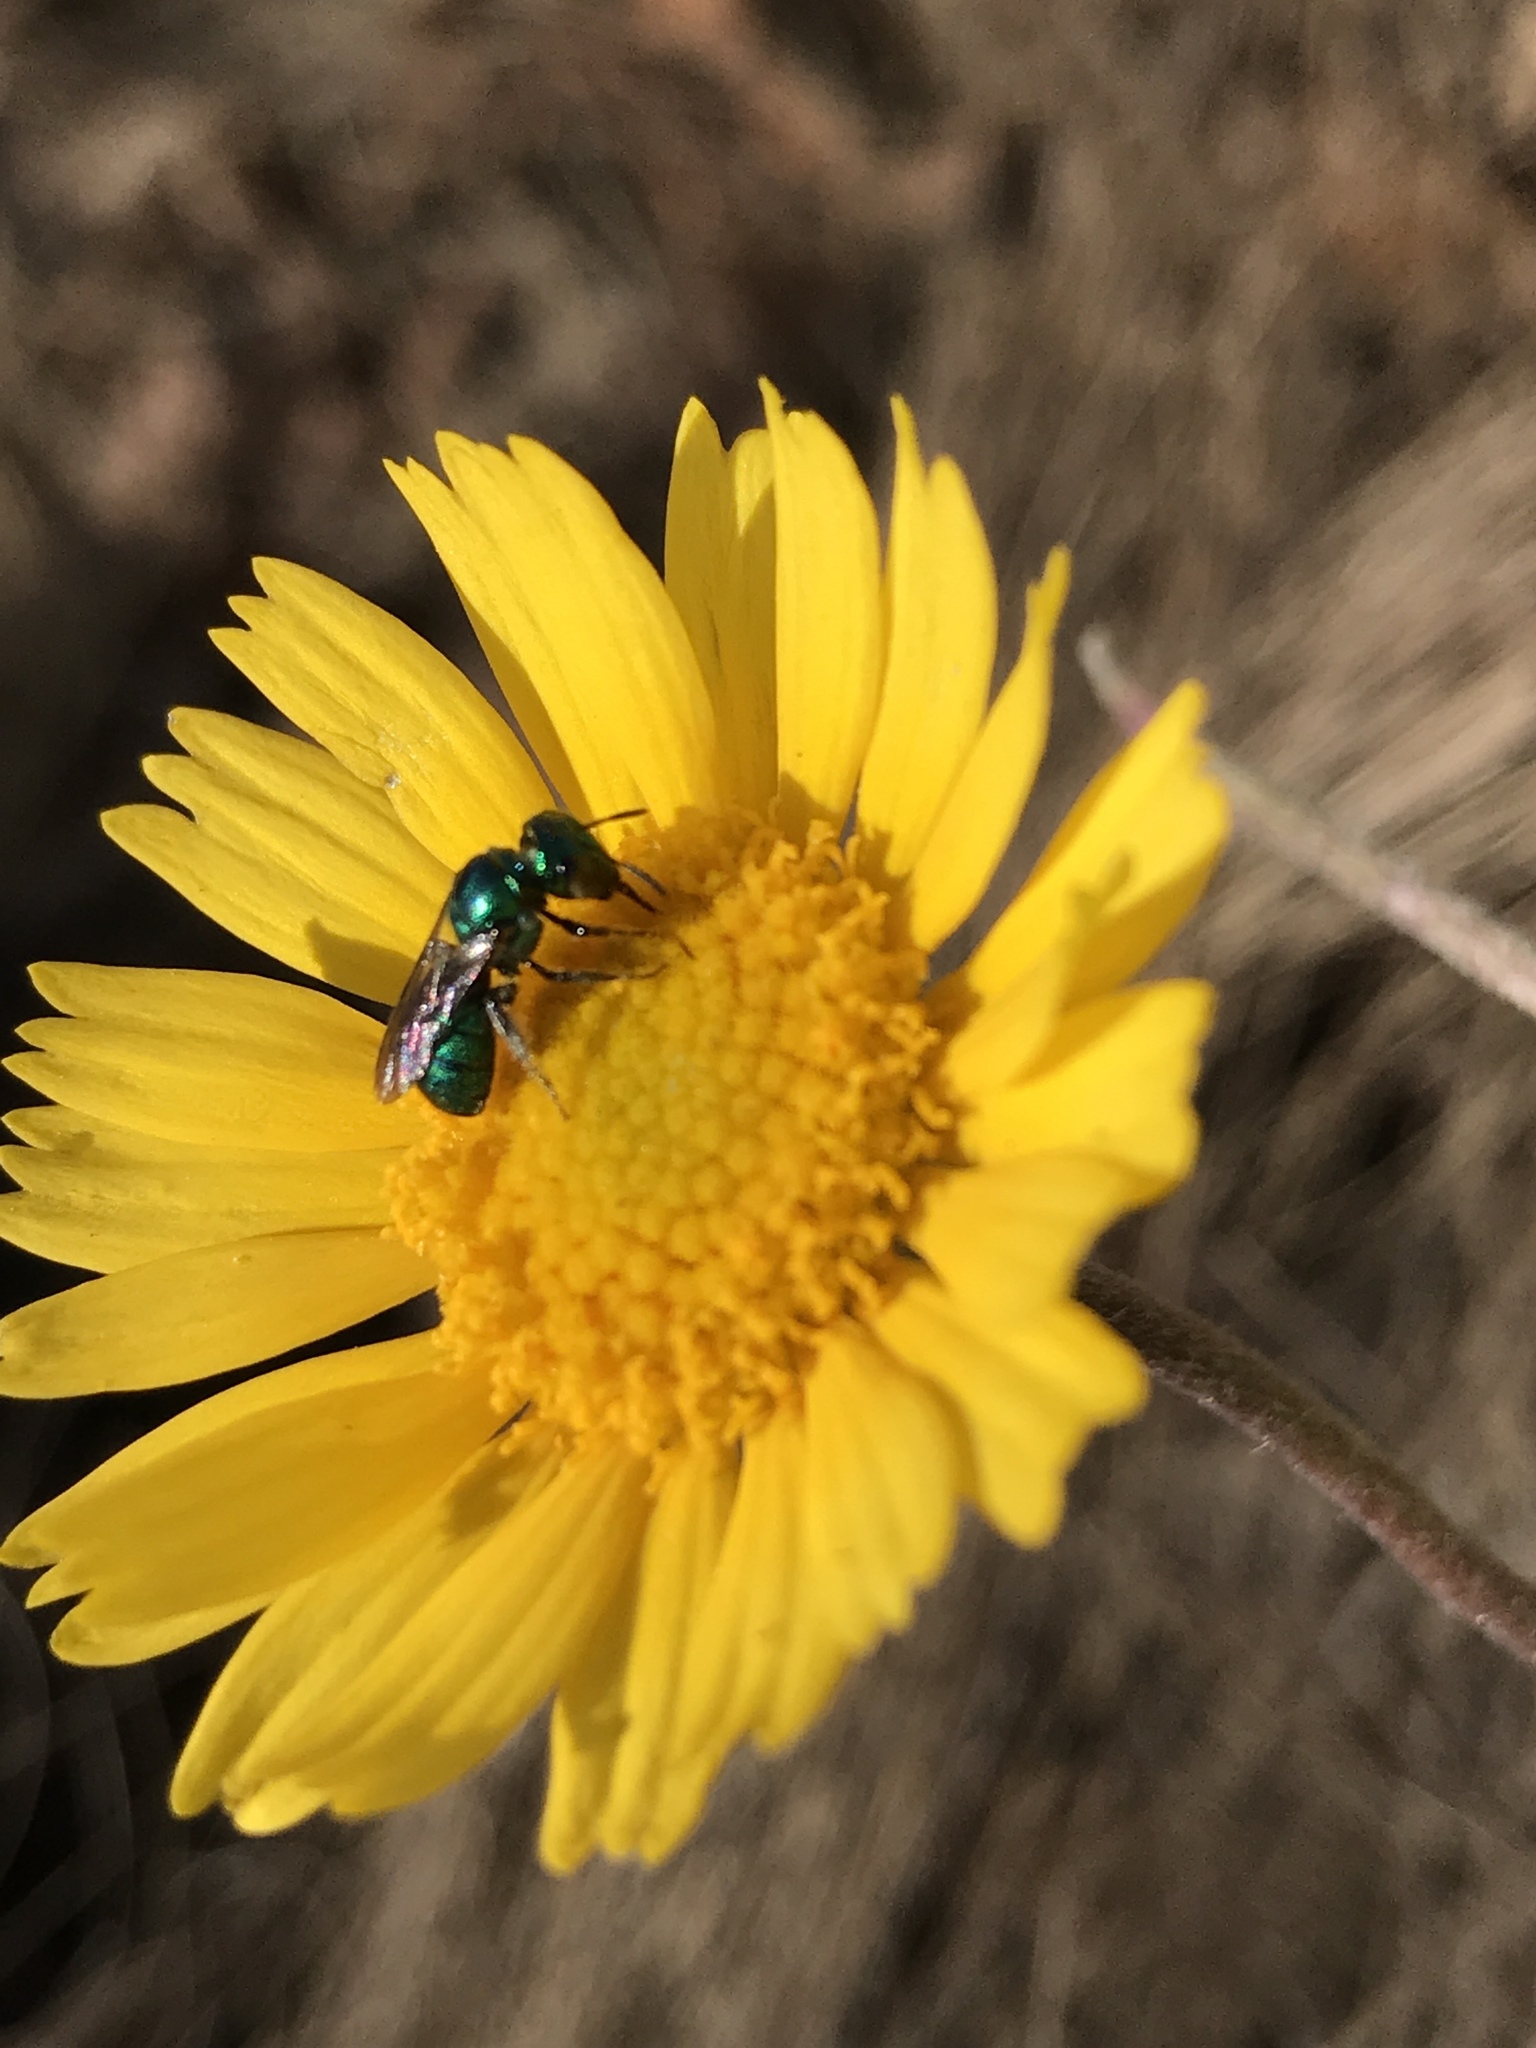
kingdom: Animalia
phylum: Arthropoda
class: Insecta
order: Hymenoptera
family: Apidae
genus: Ceratina
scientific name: Ceratina cobaltina
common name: Small carpenter bee
